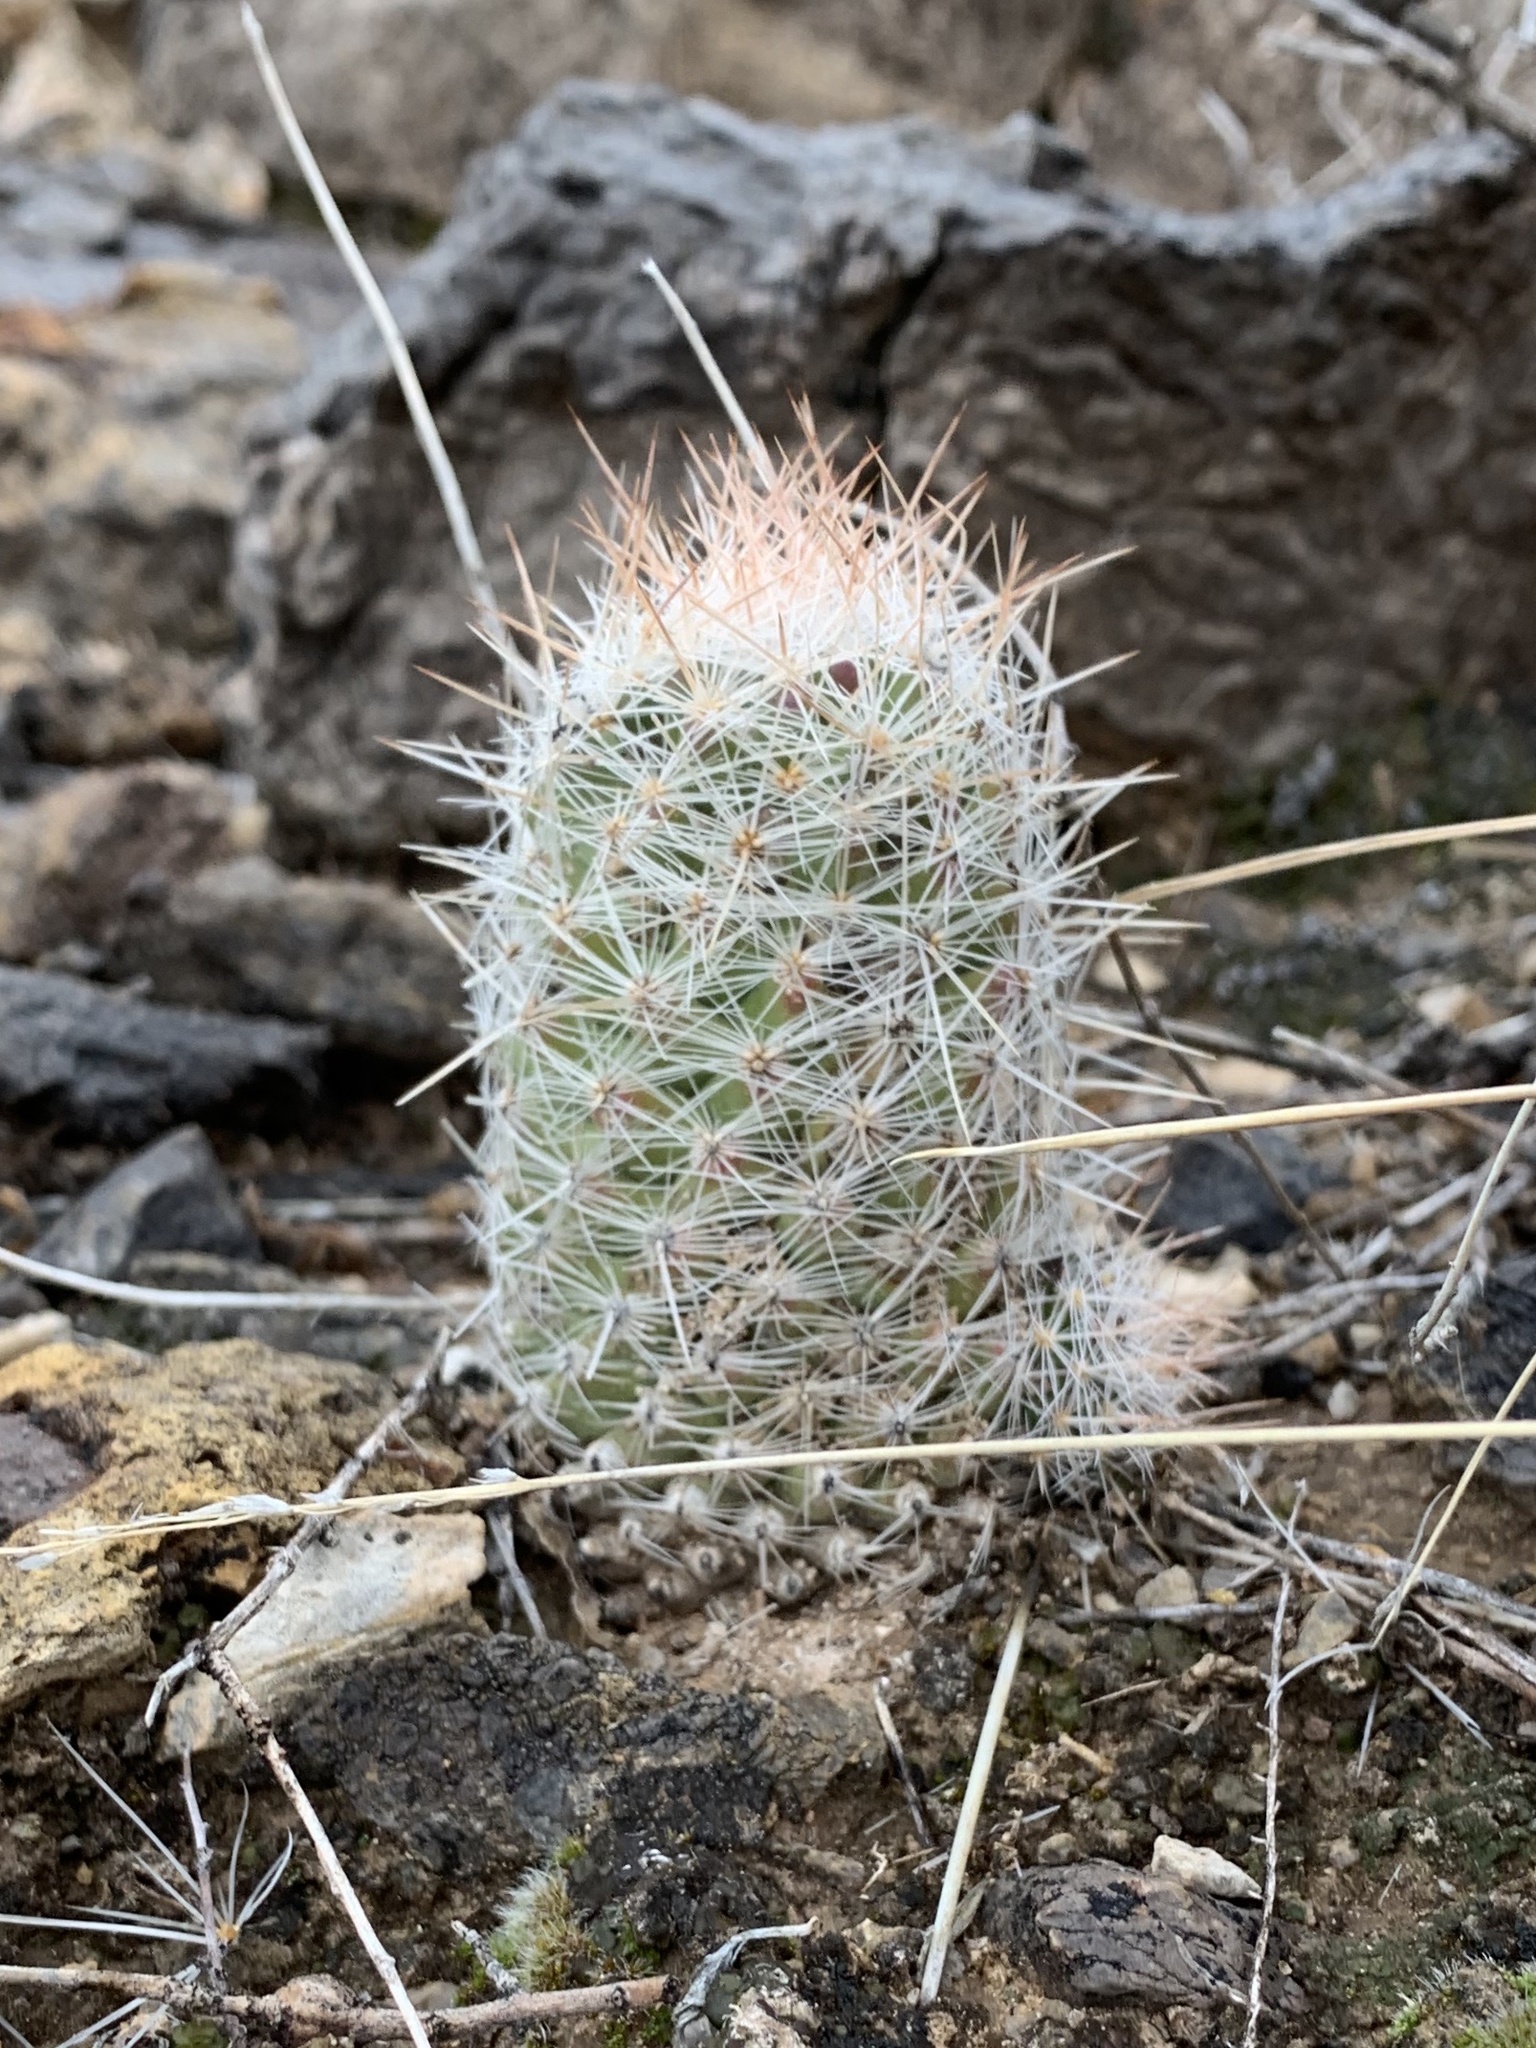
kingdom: Plantae
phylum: Tracheophyta
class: Magnoliopsida
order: Caryophyllales
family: Cactaceae
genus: Pelecyphora
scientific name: Pelecyphora tuberculosa
